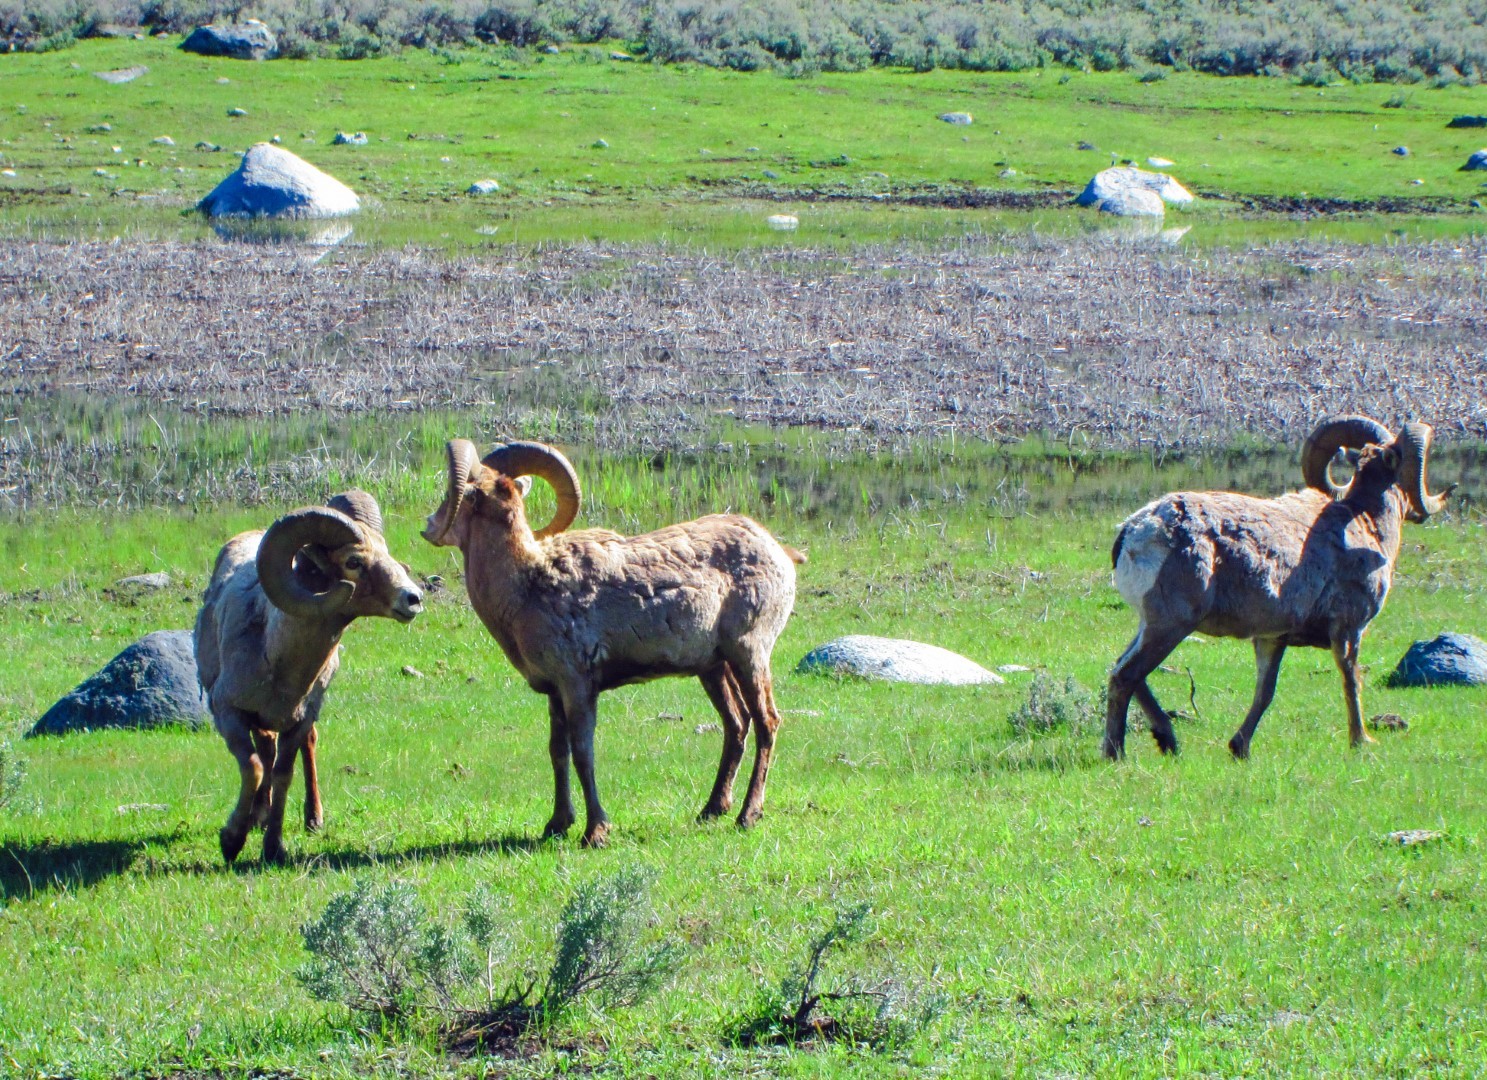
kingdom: Animalia
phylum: Chordata
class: Mammalia
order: Artiodactyla
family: Bovidae
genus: Ovis
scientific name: Ovis canadensis
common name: Bighorn sheep
